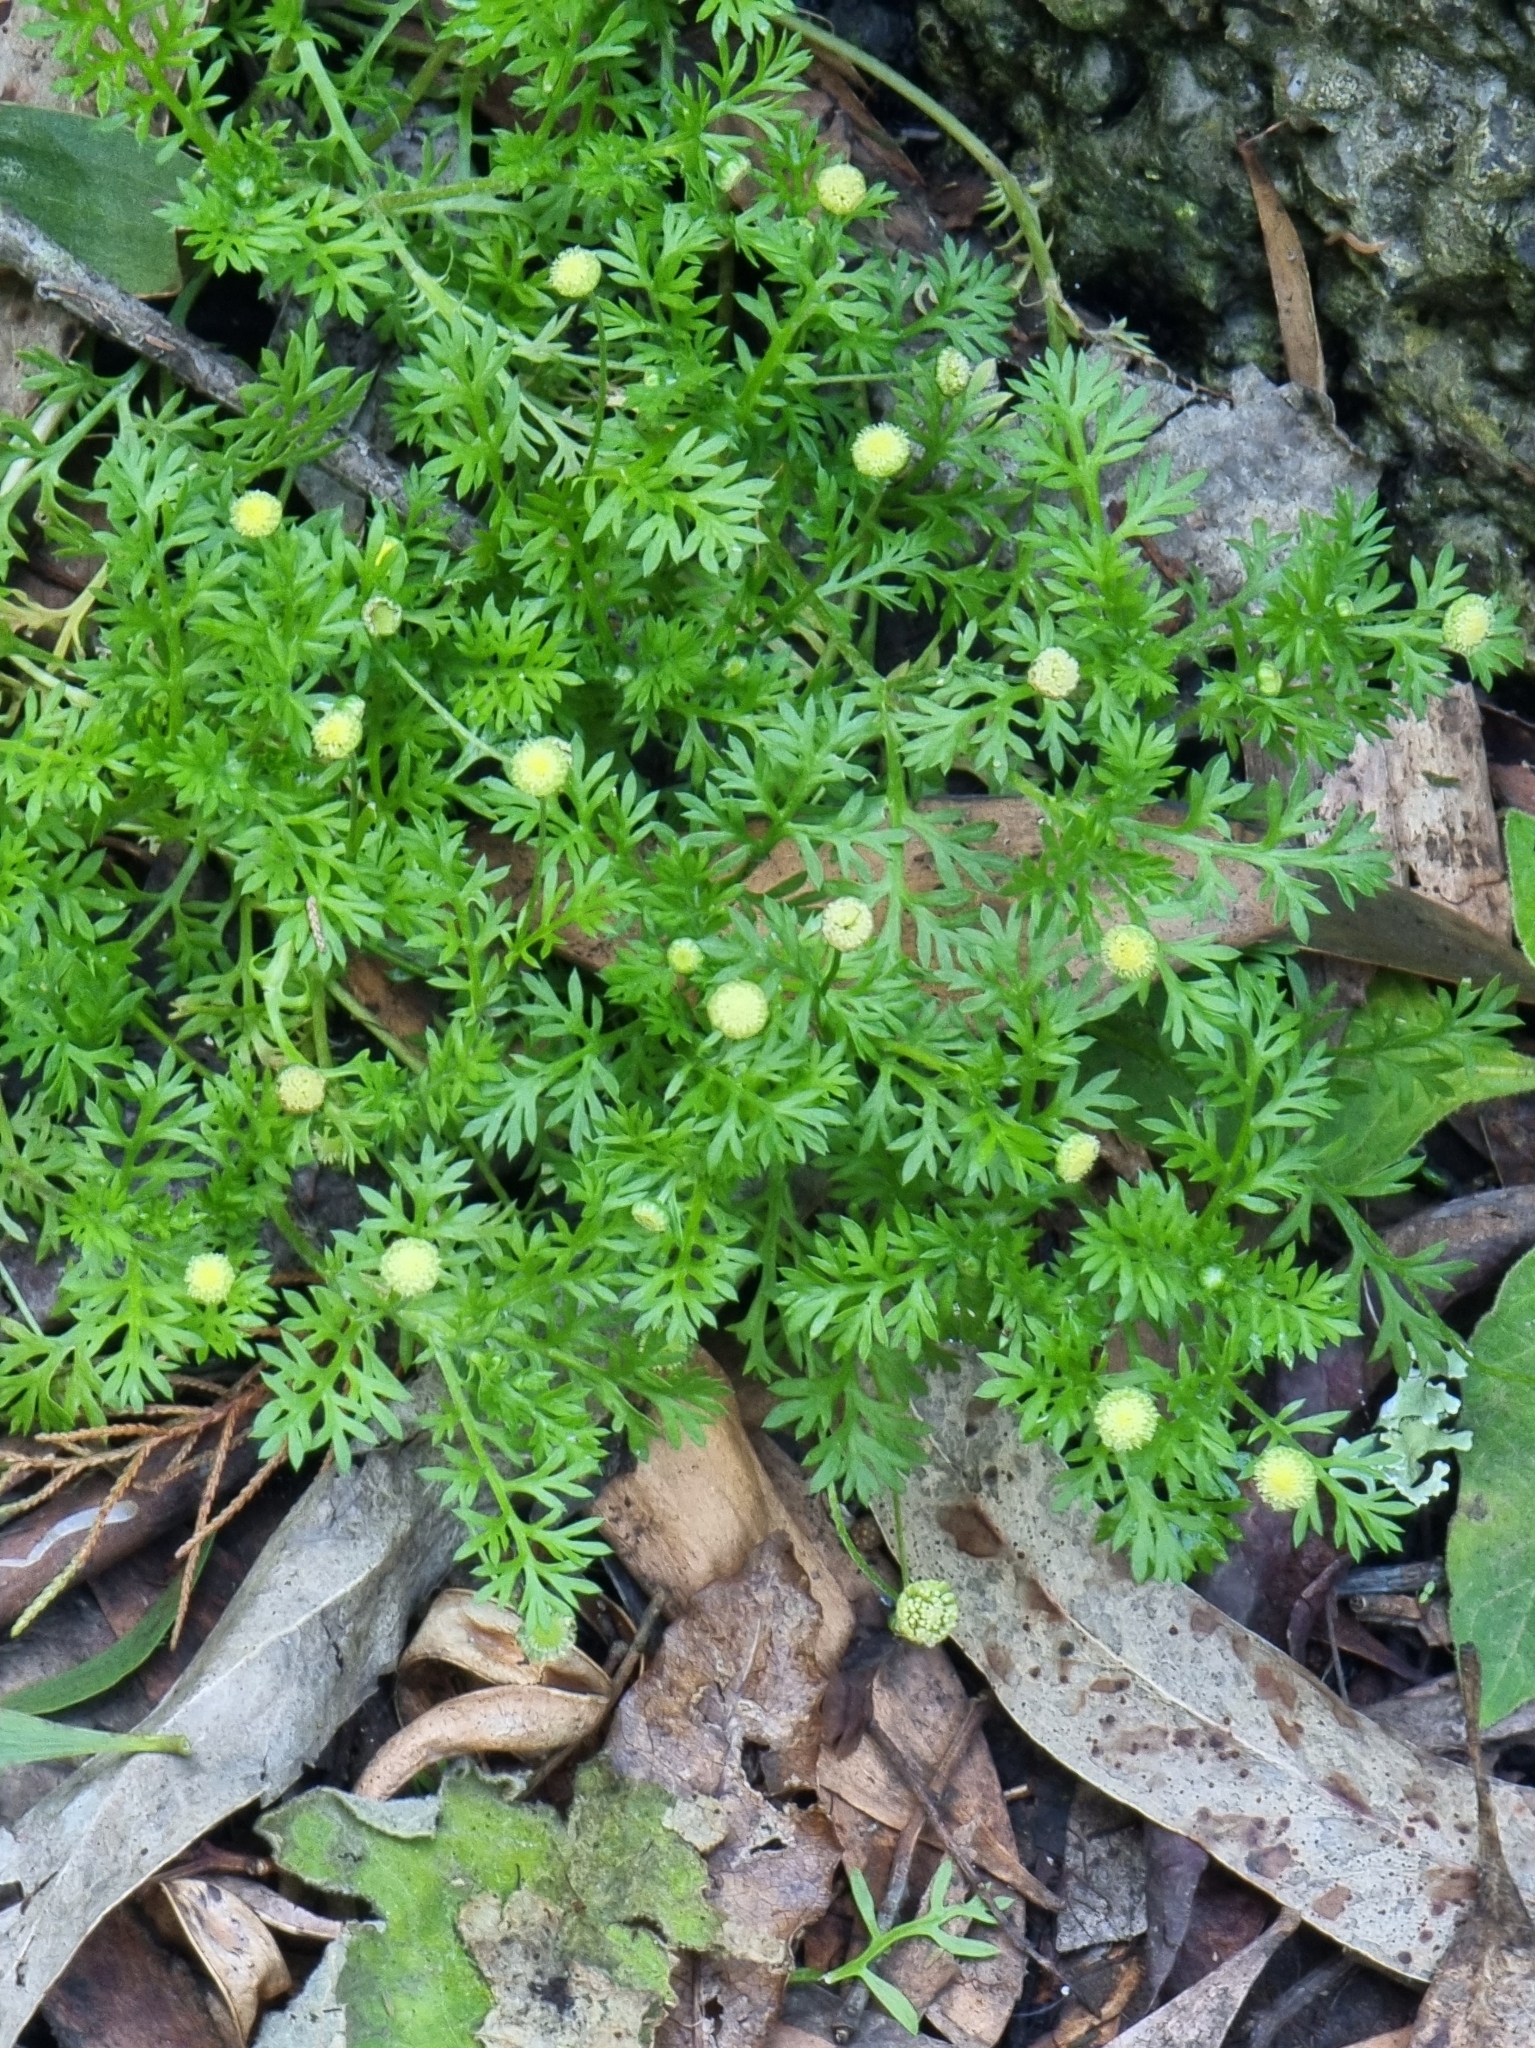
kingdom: Plantae
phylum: Tracheophyta
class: Magnoliopsida
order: Asterales
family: Asteraceae
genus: Cotula
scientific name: Cotula australis
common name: Australian waterbuttons
